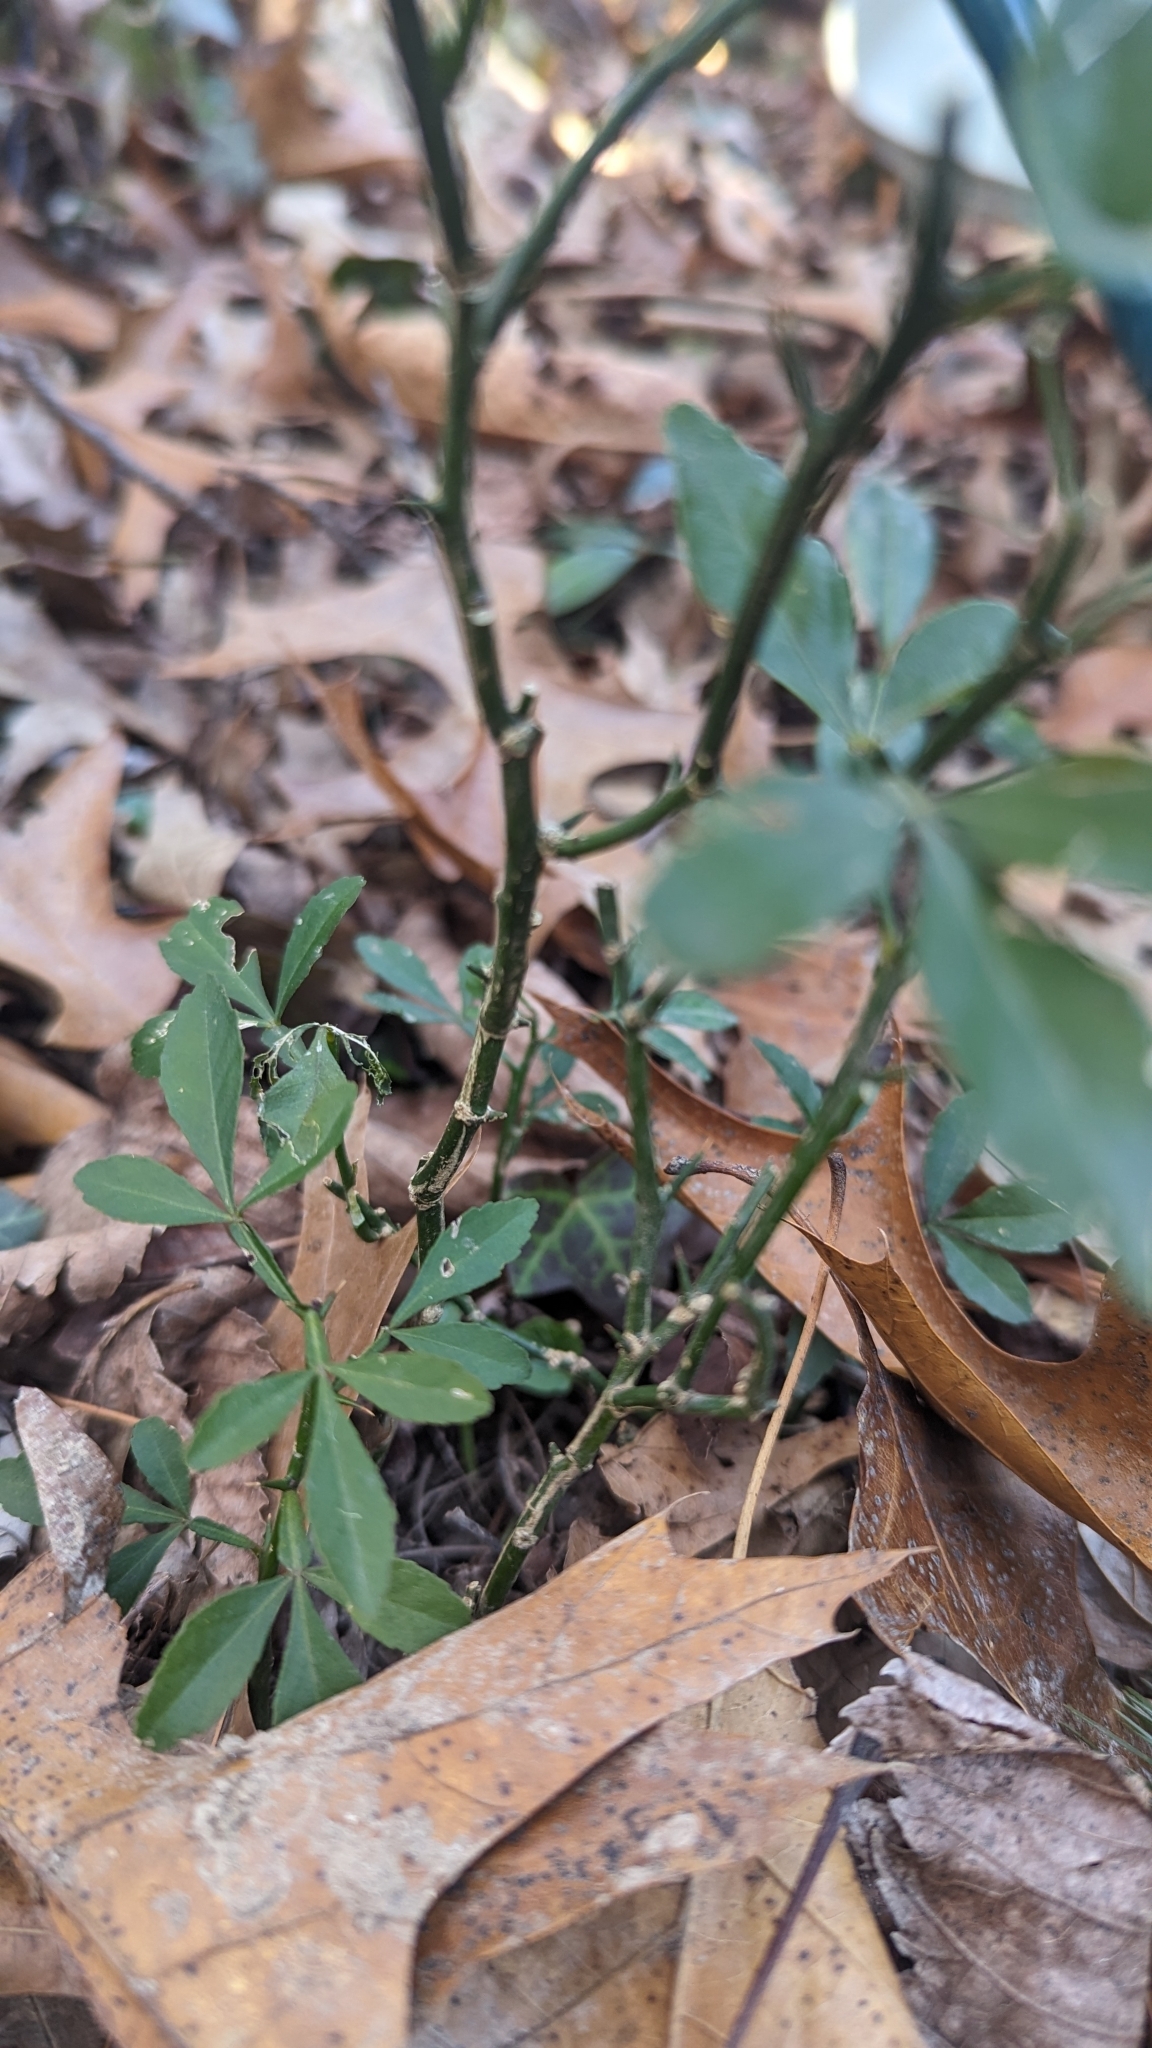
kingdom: Plantae
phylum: Tracheophyta
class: Magnoliopsida
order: Sapindales
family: Rutaceae
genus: Citrus
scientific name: Citrus trifoliata
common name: Japanese bitter-orange
